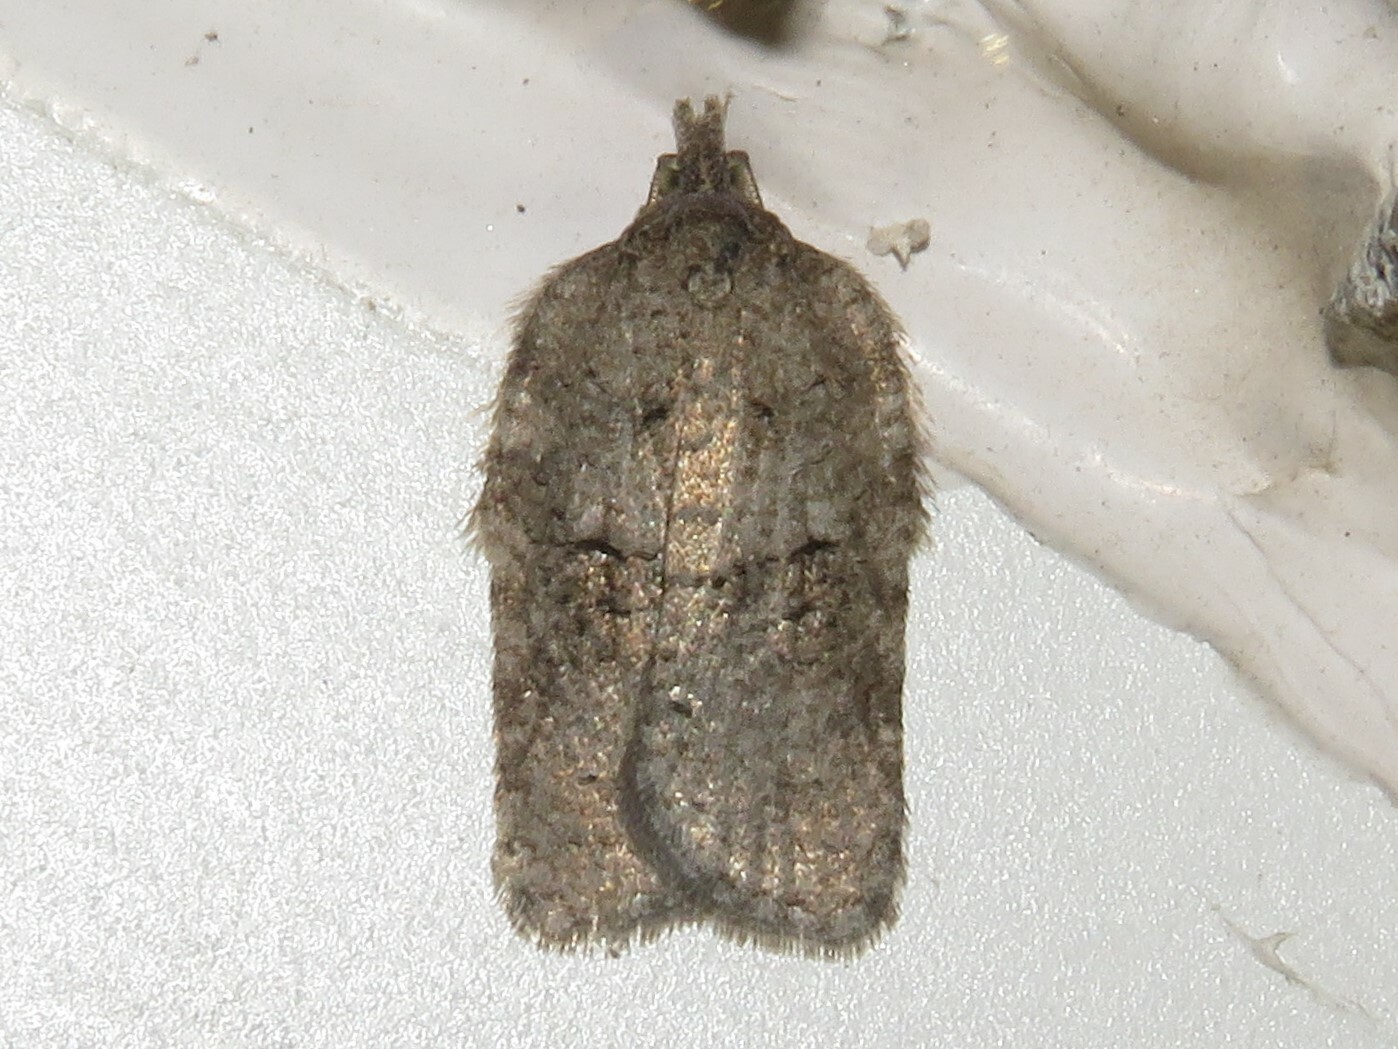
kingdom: Animalia
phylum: Arthropoda
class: Insecta
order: Lepidoptera
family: Tortricidae
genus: Acleris
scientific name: Acleris nigrolinea
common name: Black-lined acleris
